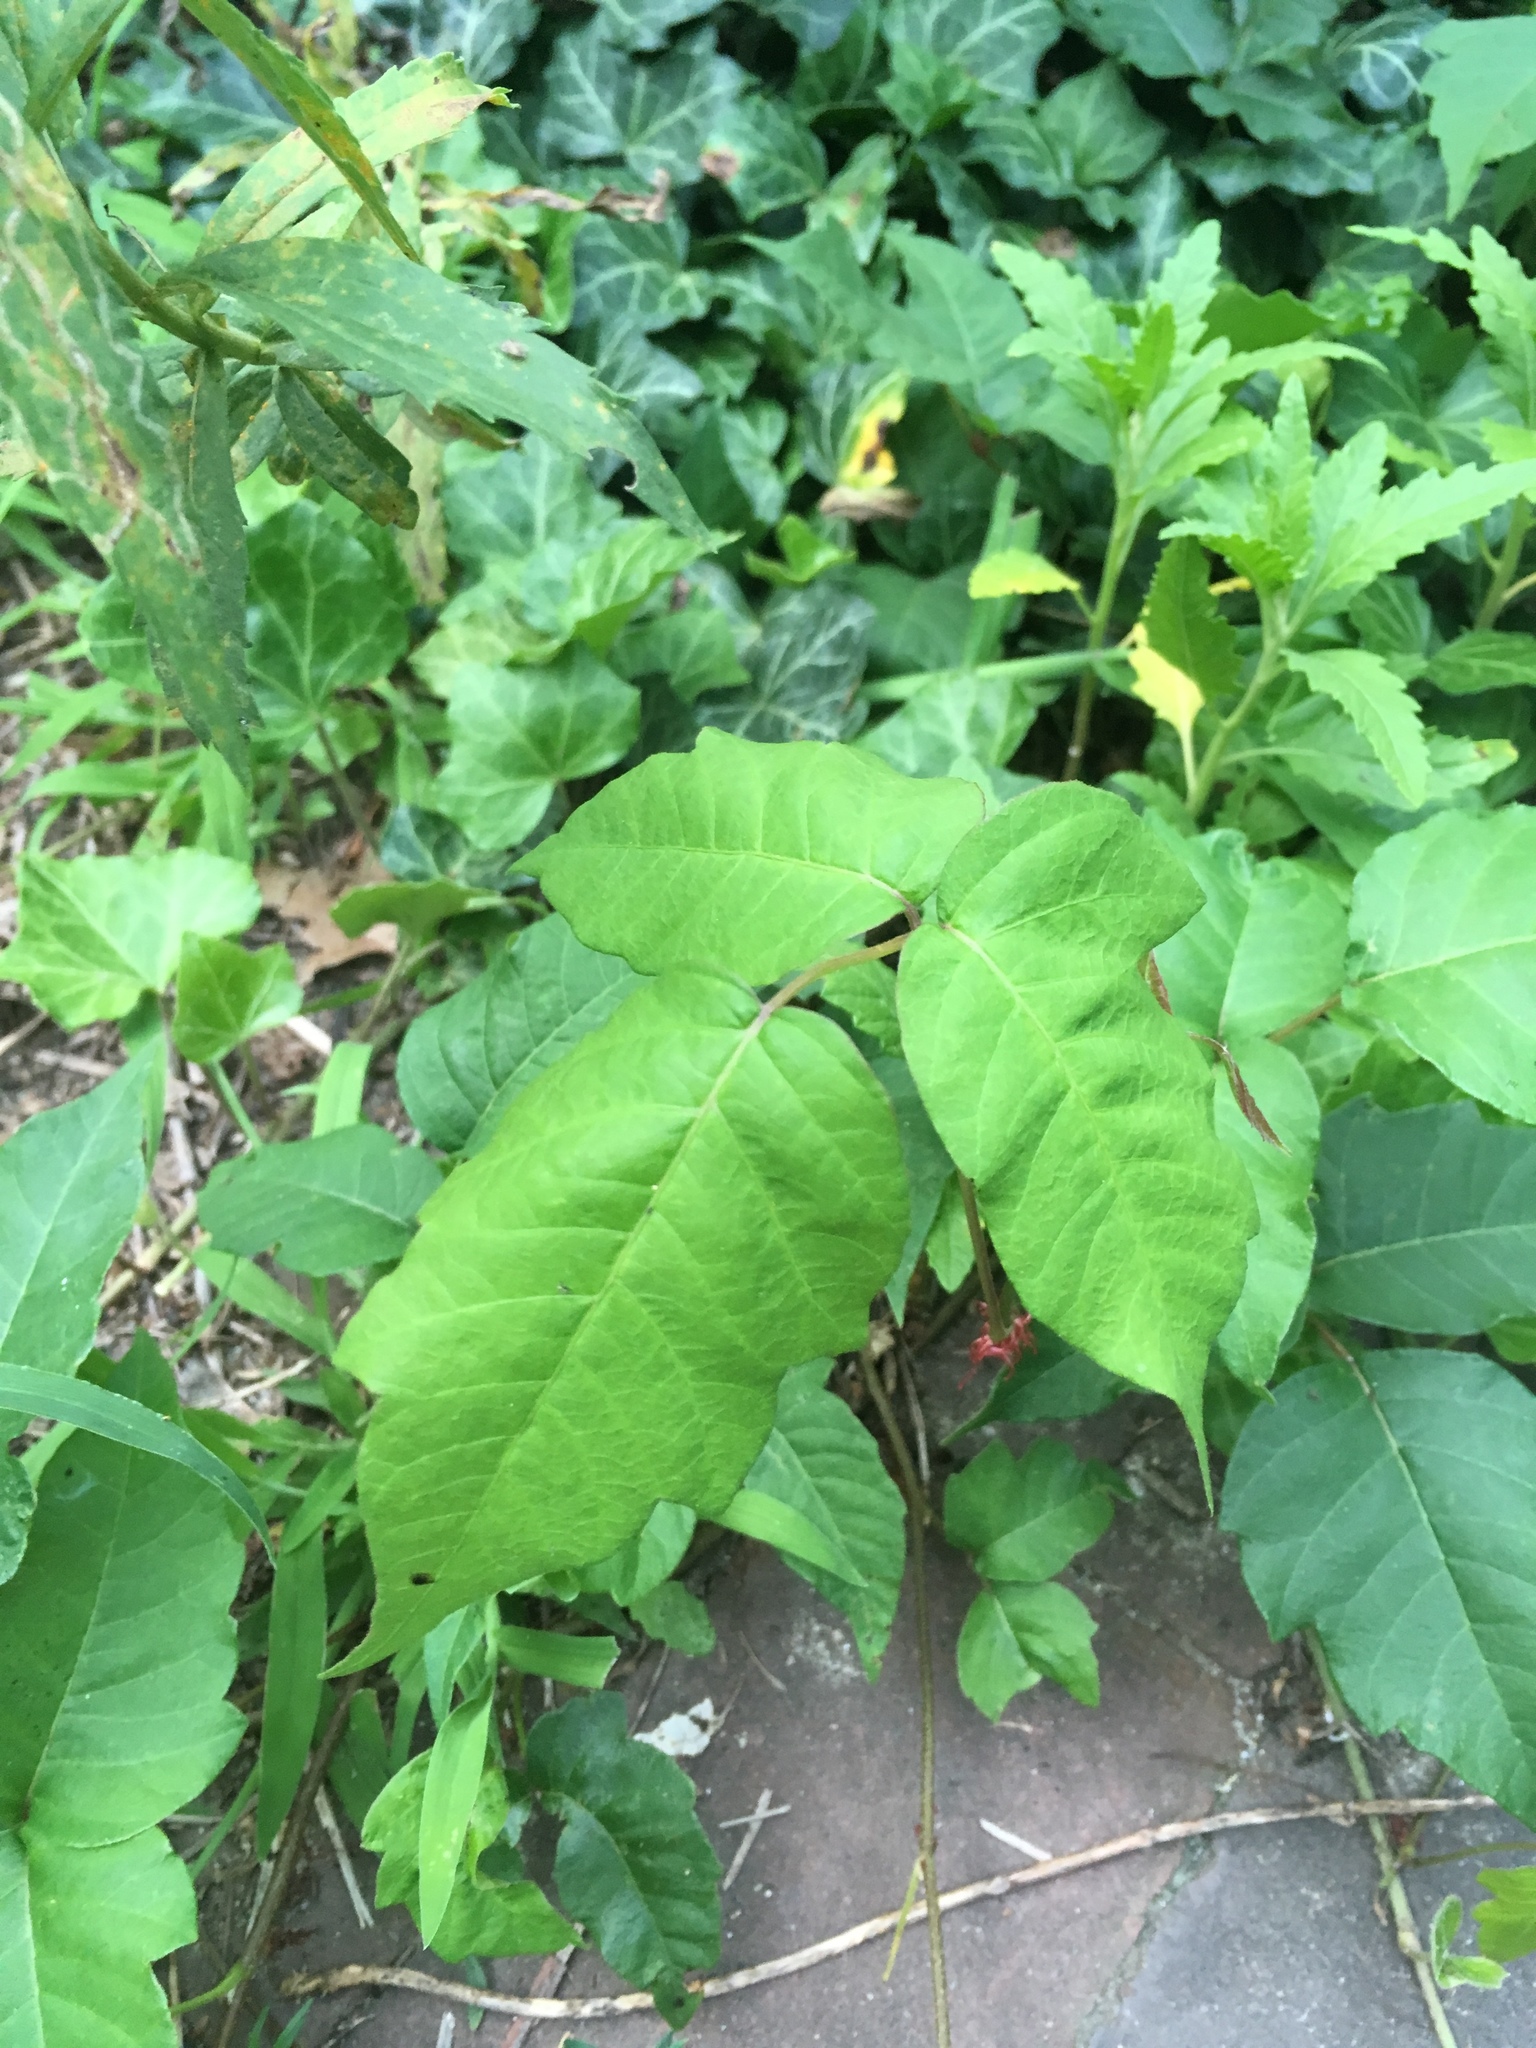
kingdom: Plantae
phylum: Tracheophyta
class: Magnoliopsida
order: Sapindales
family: Anacardiaceae
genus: Toxicodendron
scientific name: Toxicodendron radicans
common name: Poison ivy
